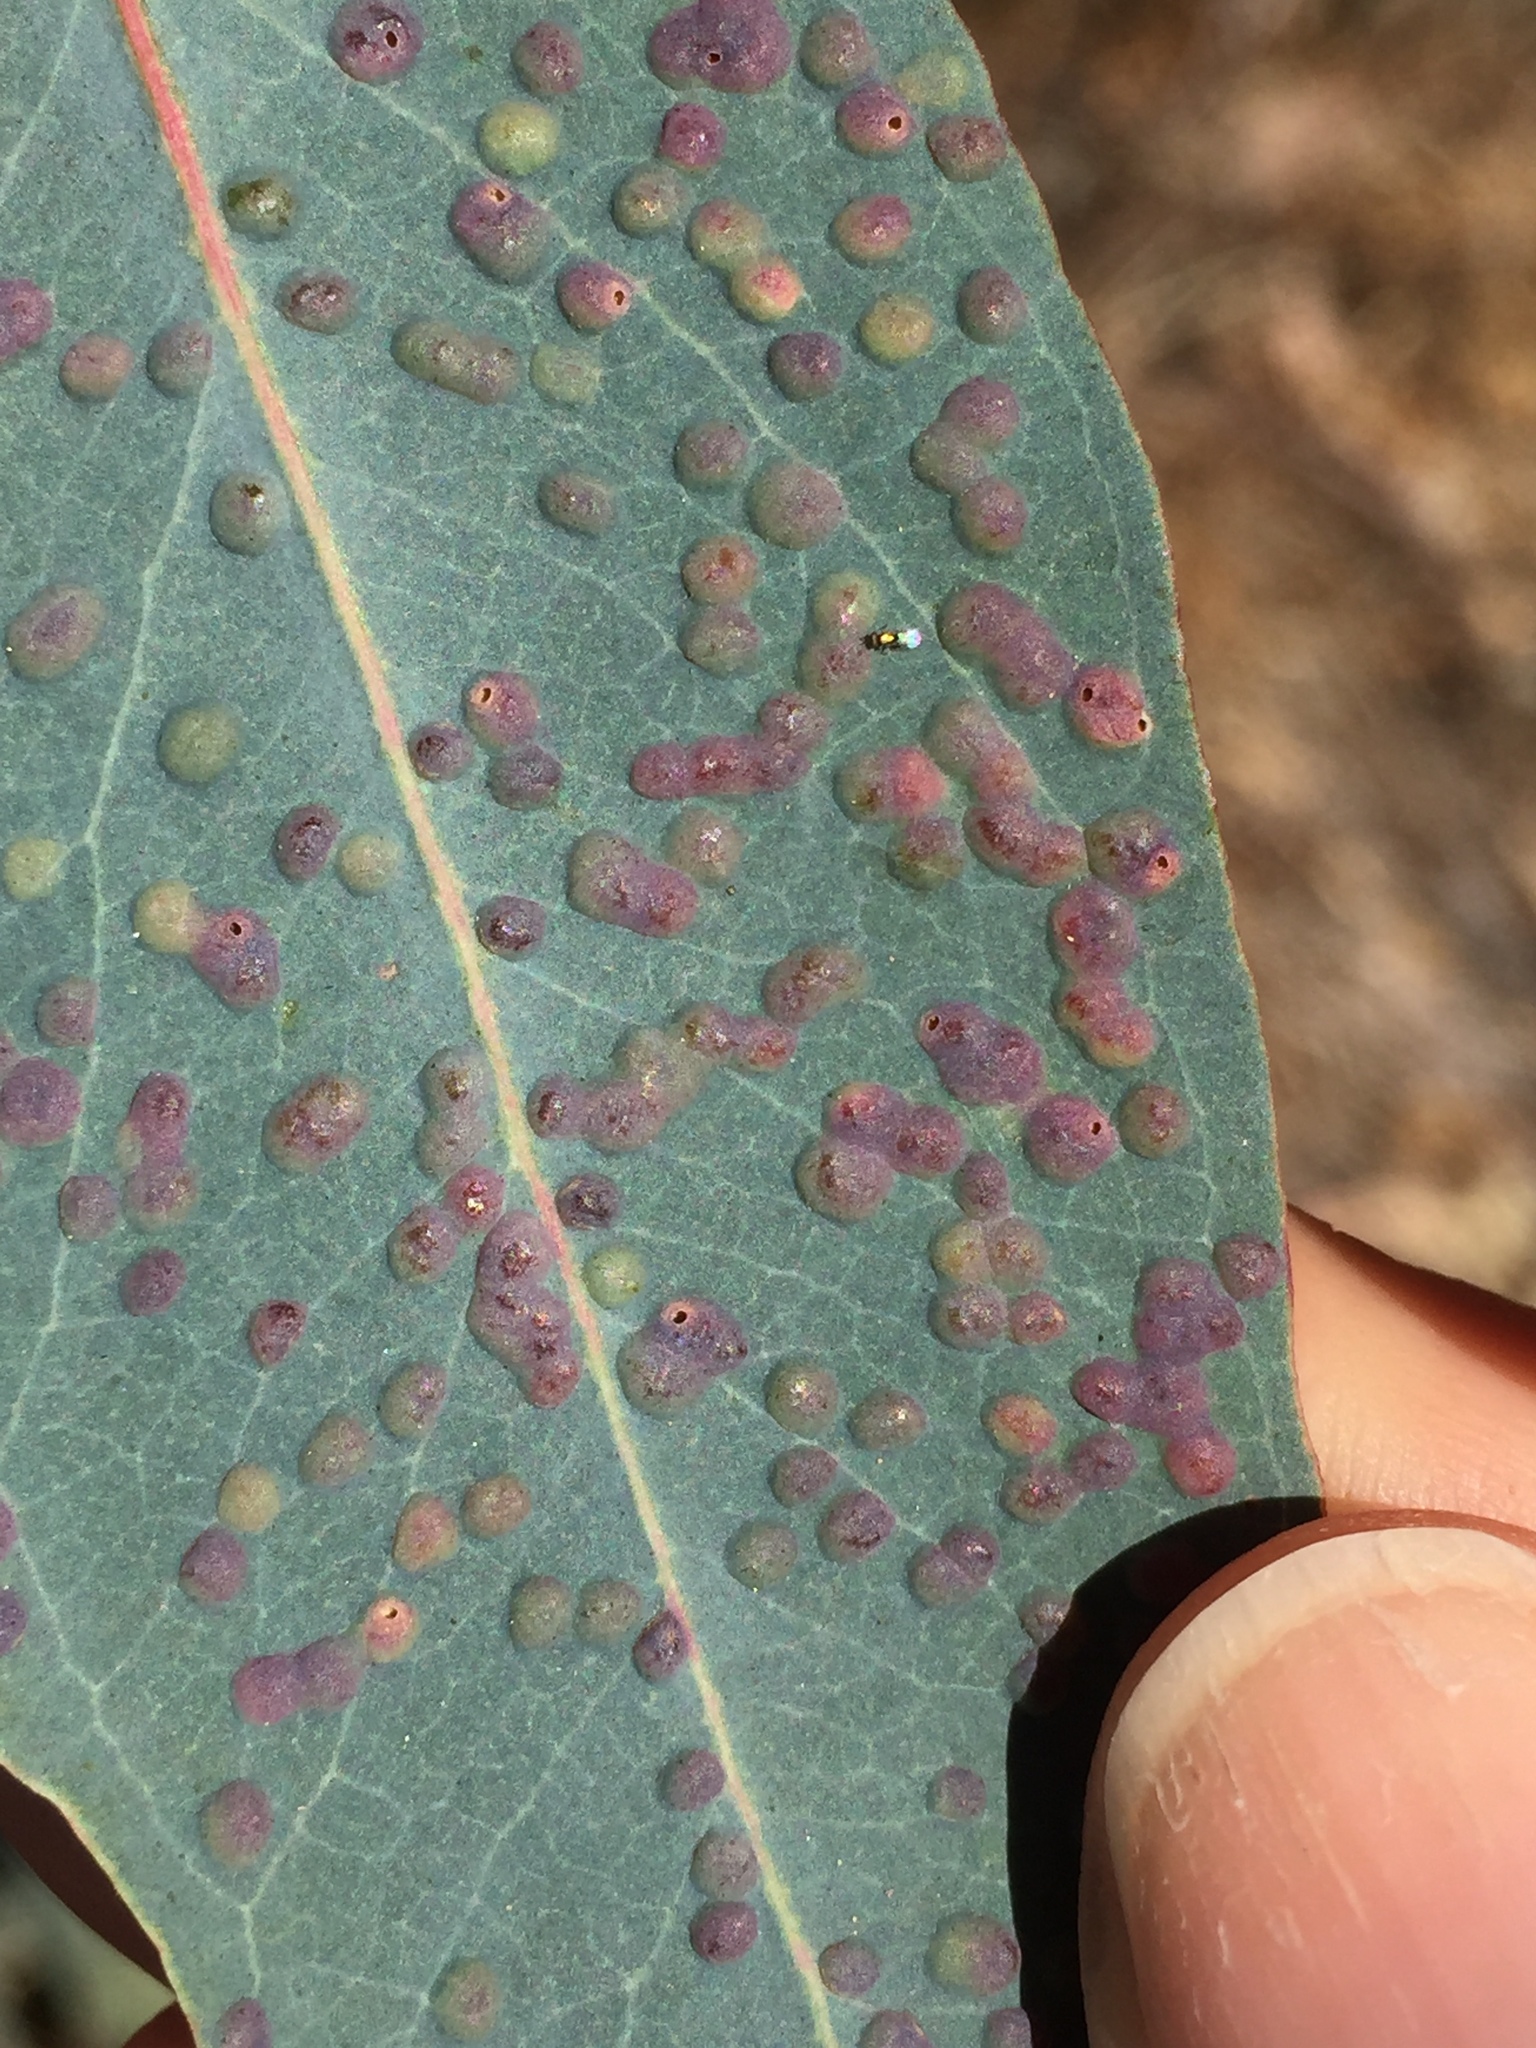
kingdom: Animalia
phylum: Arthropoda
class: Insecta
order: Hymenoptera
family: Eulophidae
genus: Ophelimus
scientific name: Ophelimus maskelli
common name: Gall wasp
